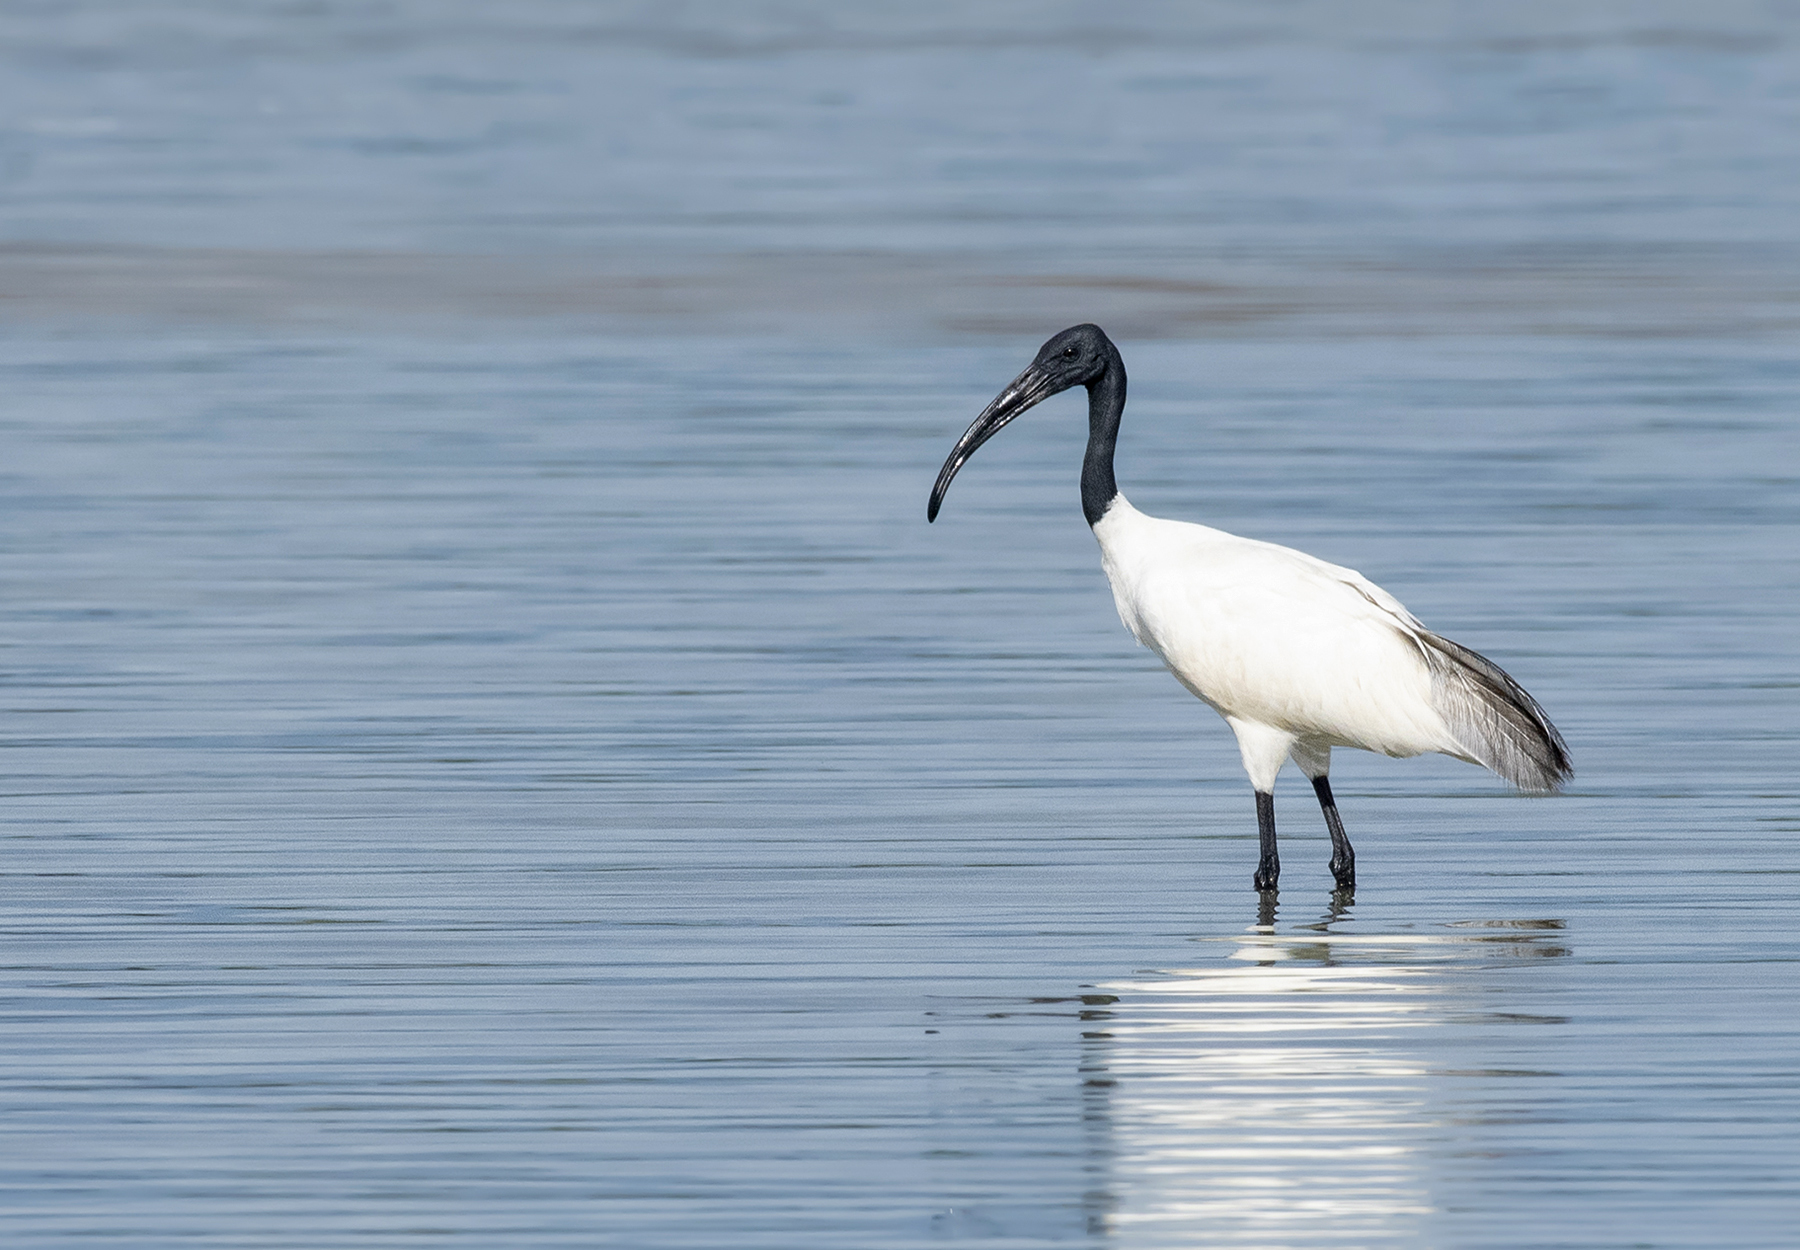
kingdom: Animalia
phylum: Chordata
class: Aves
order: Pelecaniformes
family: Threskiornithidae
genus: Threskiornis
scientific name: Threskiornis melanocephalus
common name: Black-headed ibis
